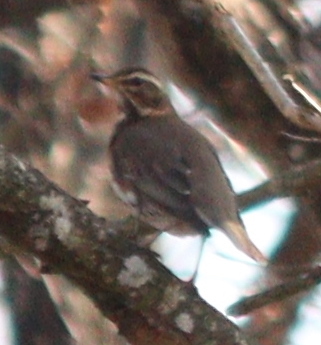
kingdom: Animalia
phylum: Chordata
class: Aves
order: Passeriformes
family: Turdidae
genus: Turdus
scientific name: Turdus iliacus
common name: Redwing
